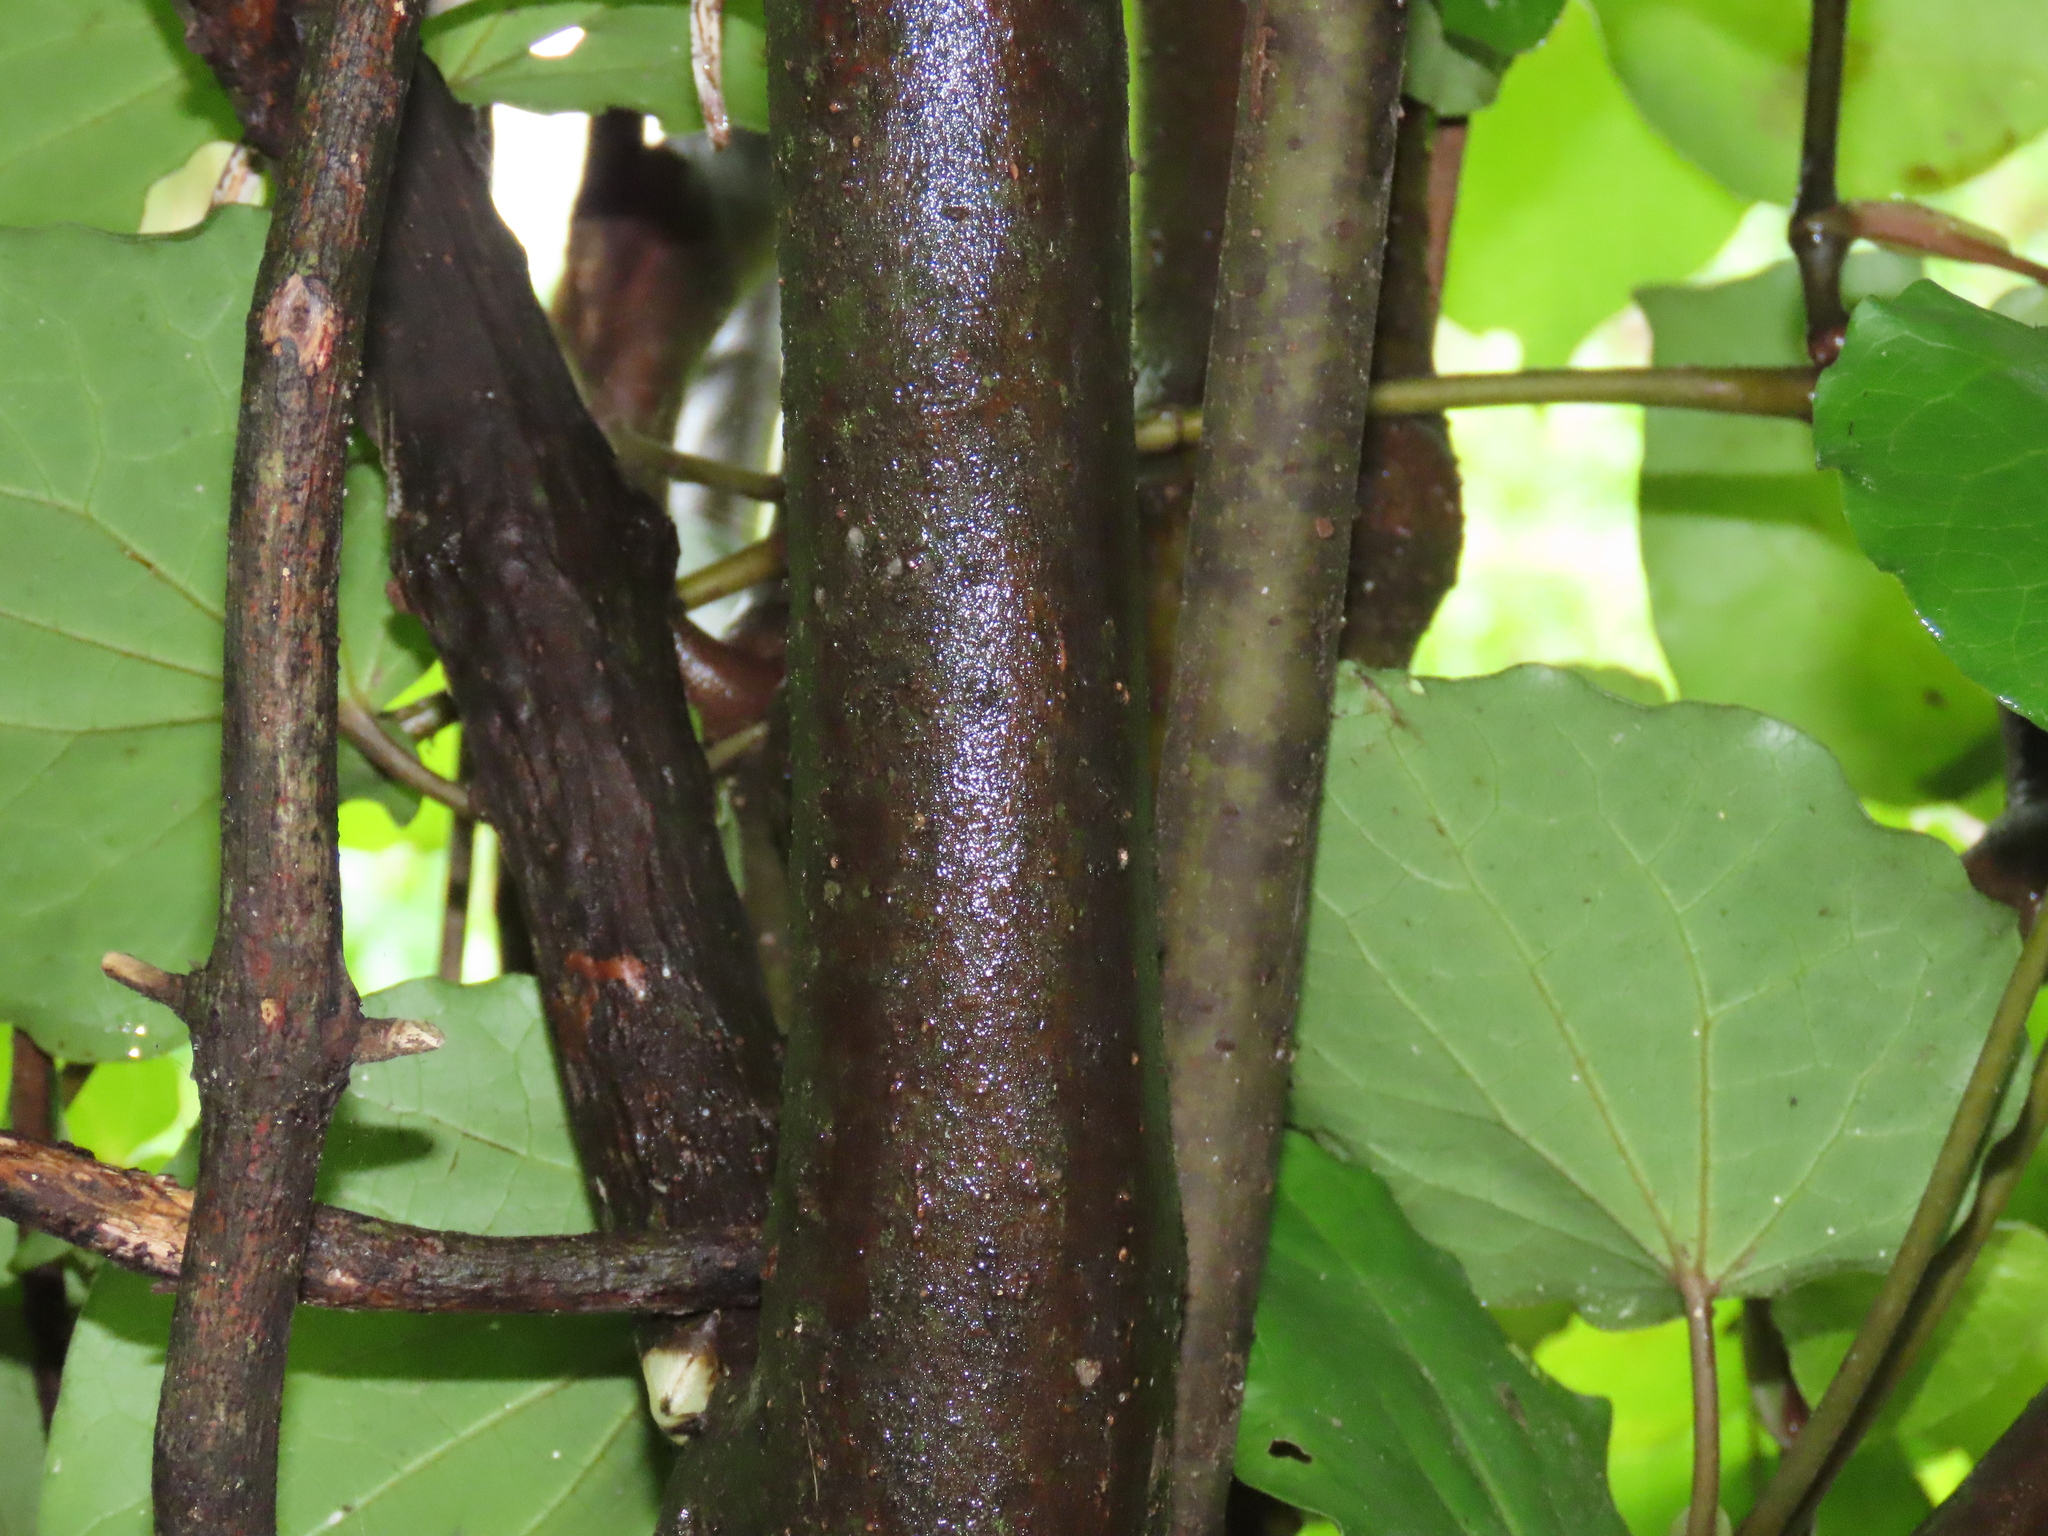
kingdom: Plantae
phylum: Tracheophyta
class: Magnoliopsida
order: Piperales
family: Piperaceae
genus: Macropiper
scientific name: Macropiper excelsum
